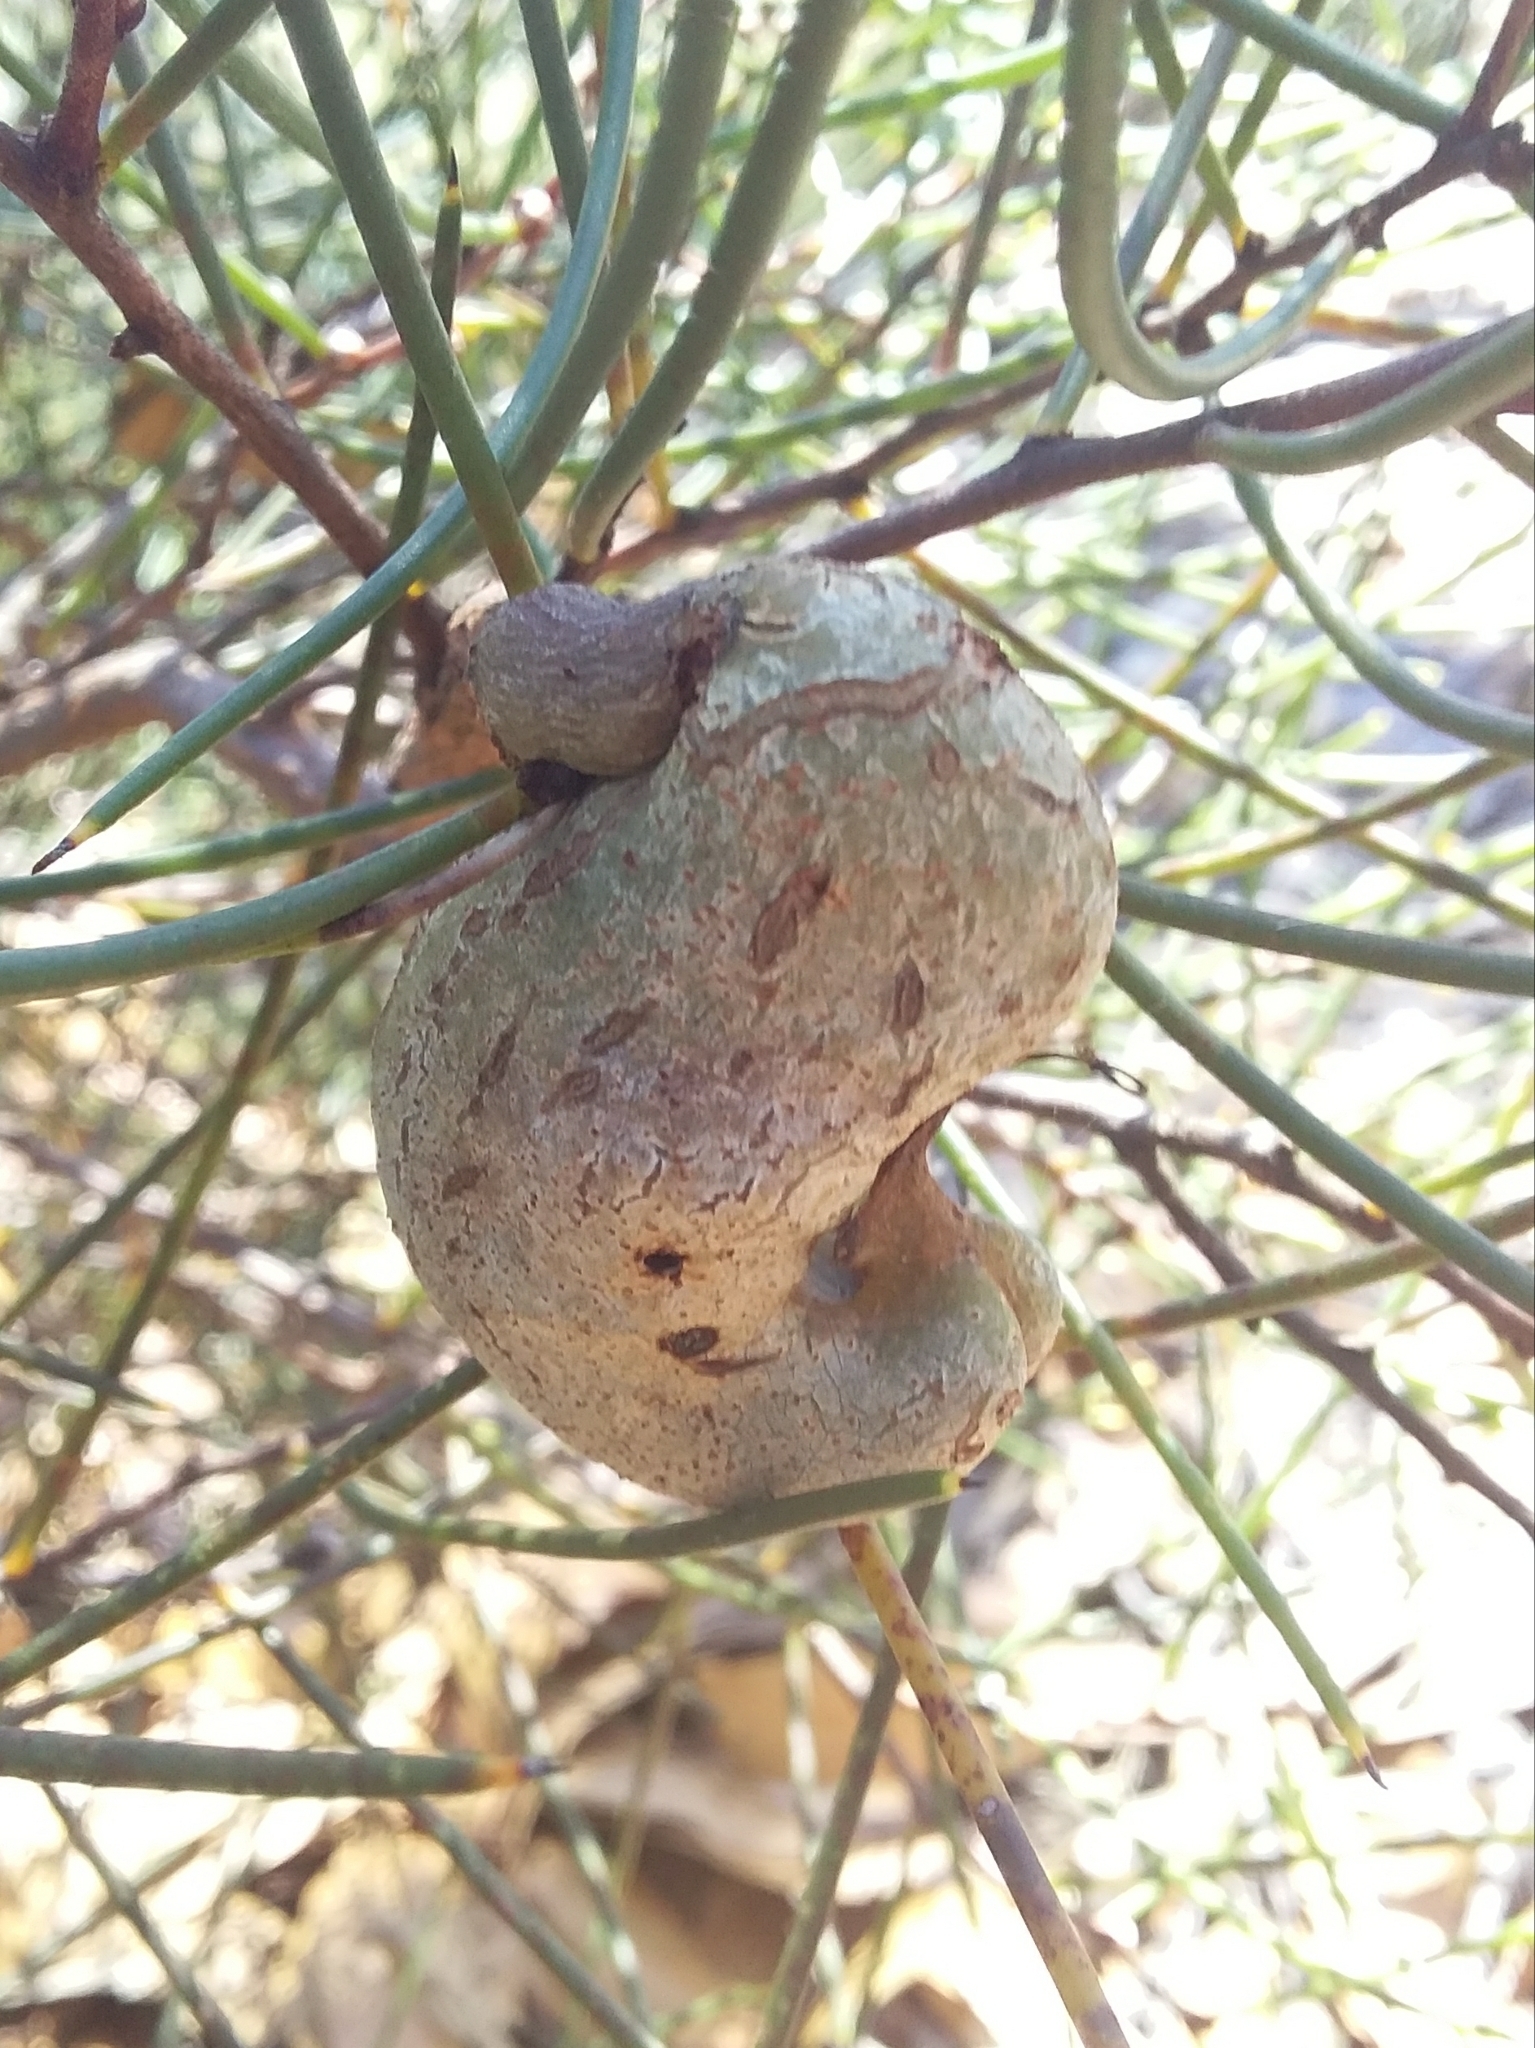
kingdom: Plantae
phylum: Tracheophyta
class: Magnoliopsida
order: Proteales
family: Proteaceae
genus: Hakea
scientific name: Hakea rostrata
